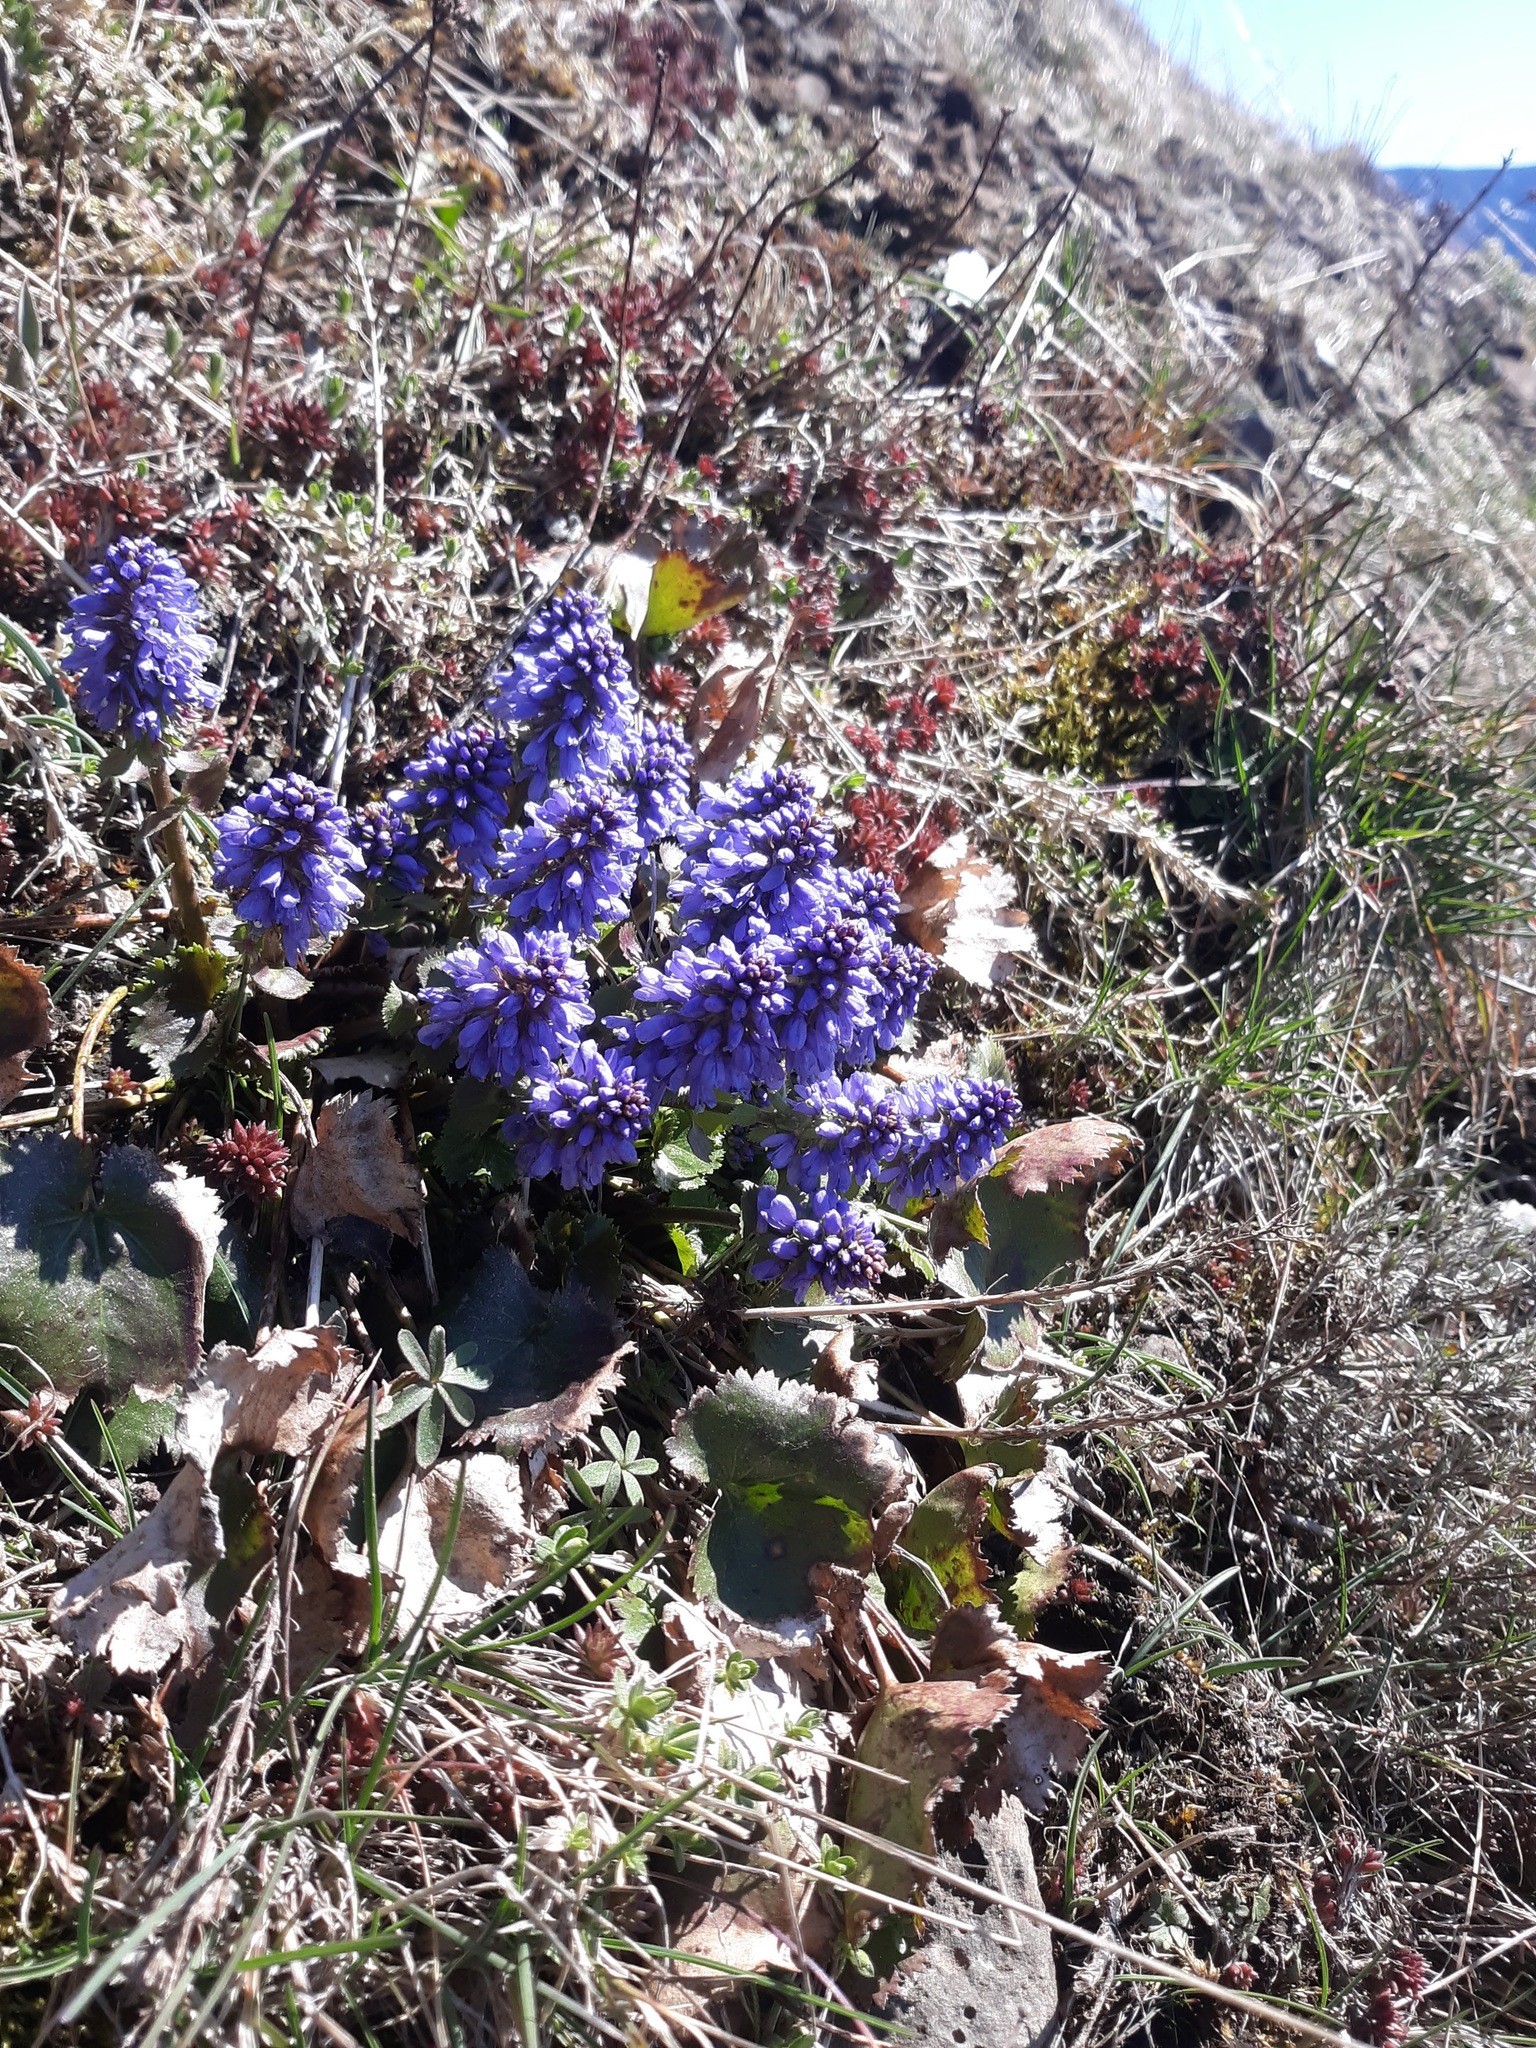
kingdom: Plantae
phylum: Tracheophyta
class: Magnoliopsida
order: Lamiales
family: Plantaginaceae
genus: Synthyris
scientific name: Synthyris missurica
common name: Kitten-tails
